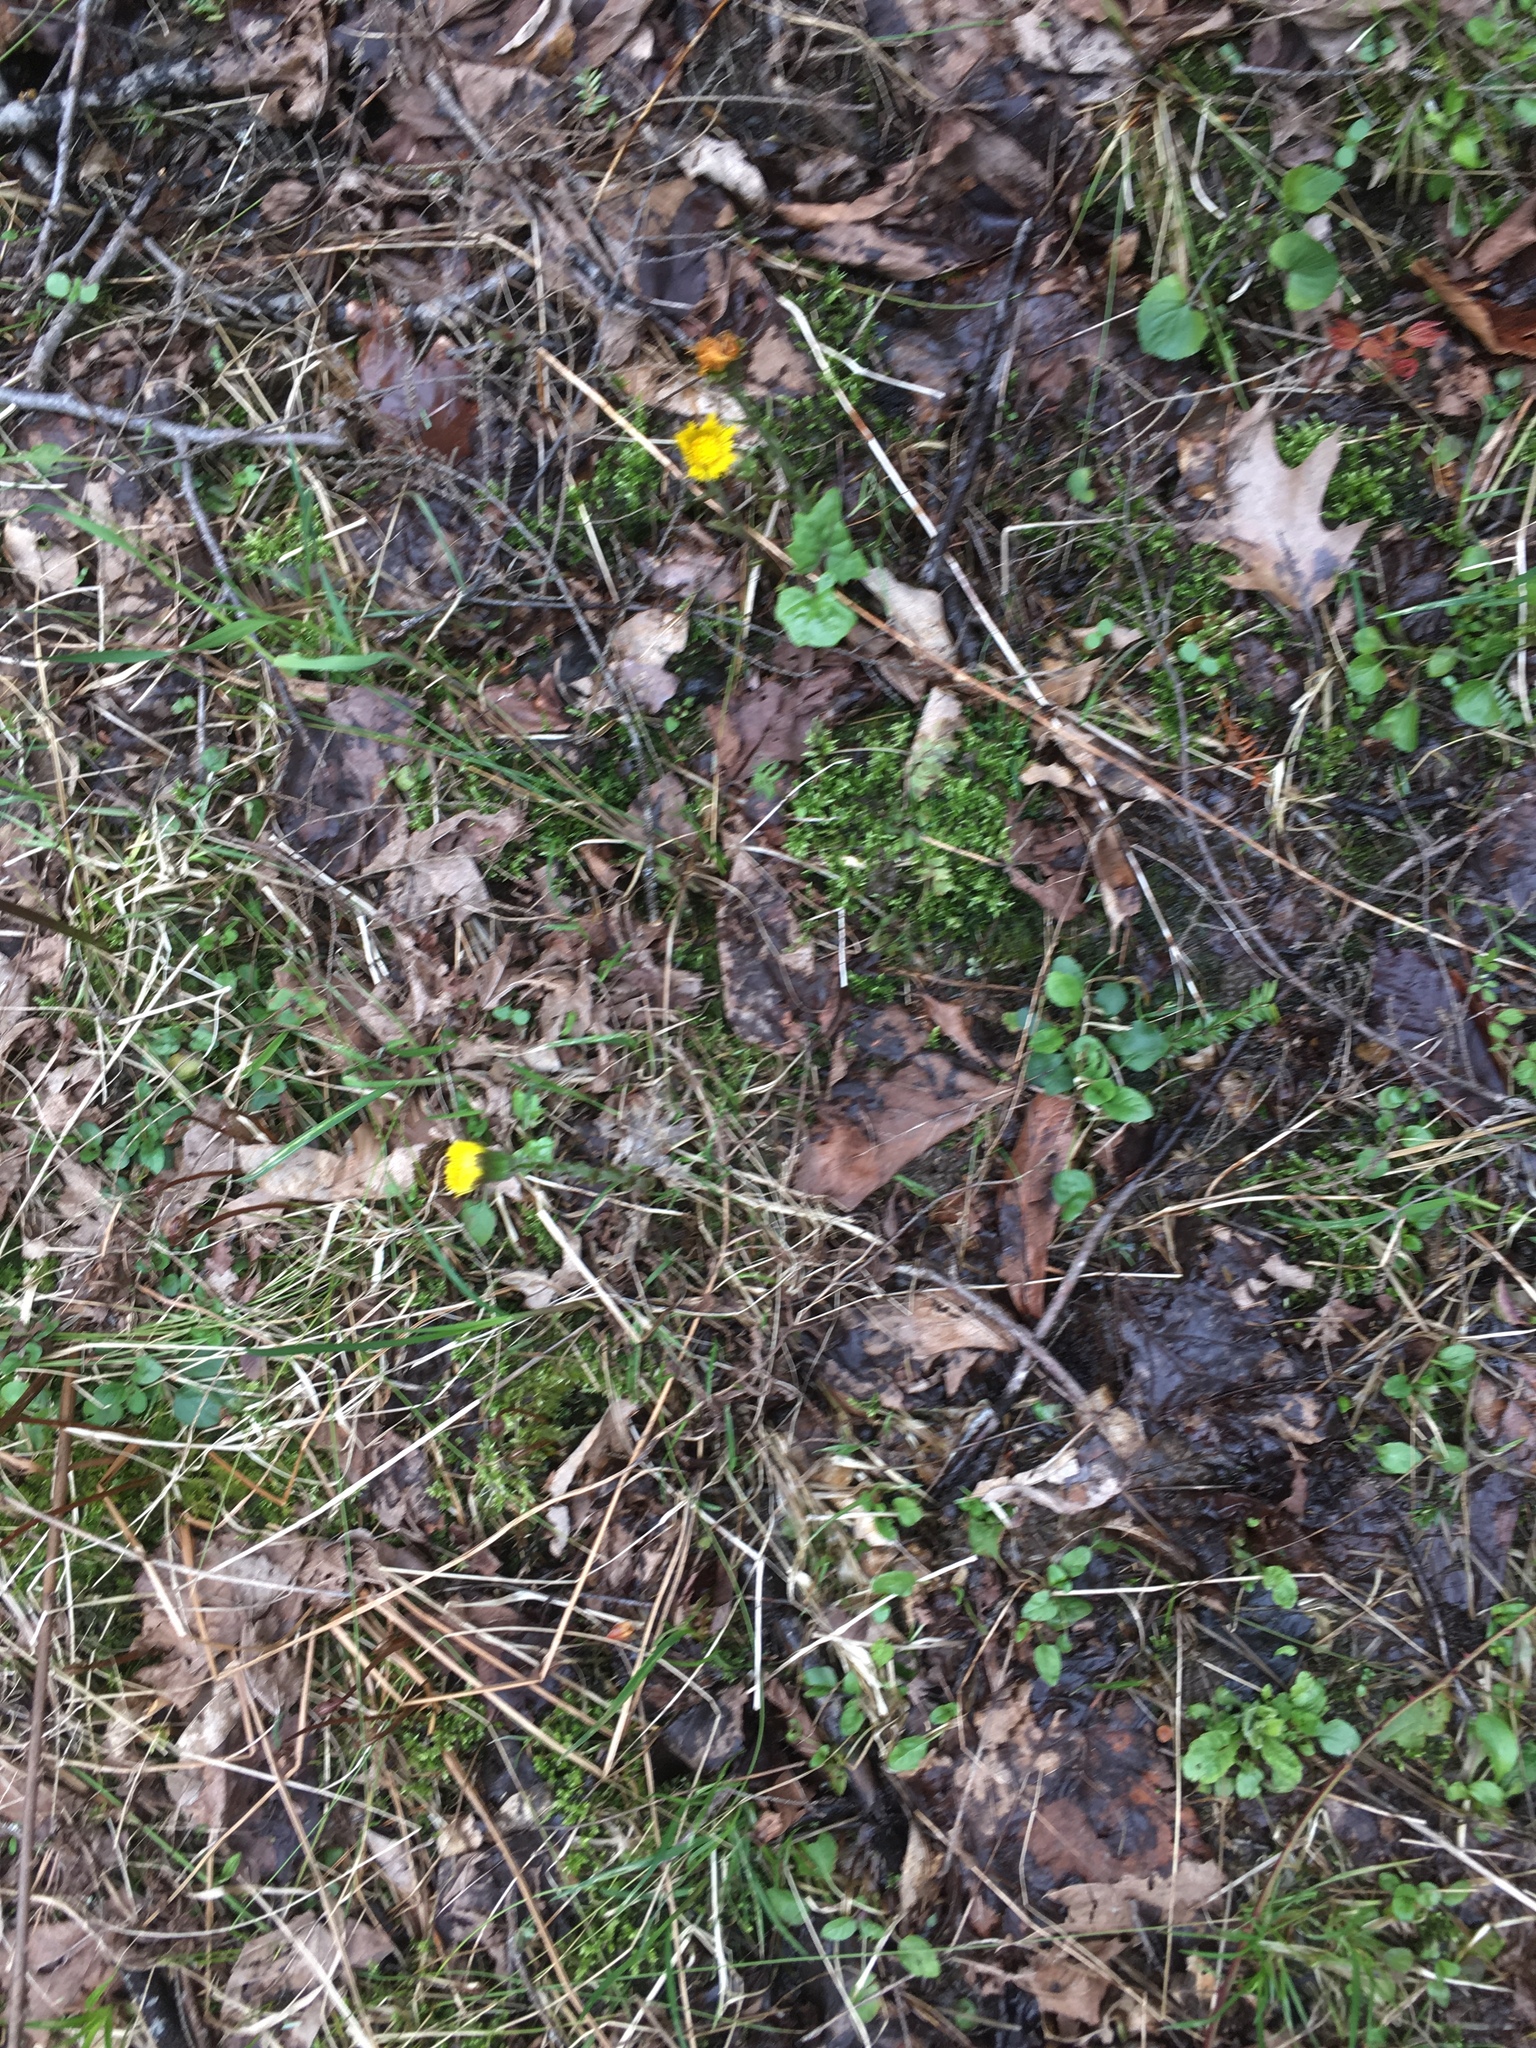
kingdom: Plantae
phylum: Tracheophyta
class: Magnoliopsida
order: Asterales
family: Asteraceae
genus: Tussilago
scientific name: Tussilago farfara
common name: Coltsfoot
